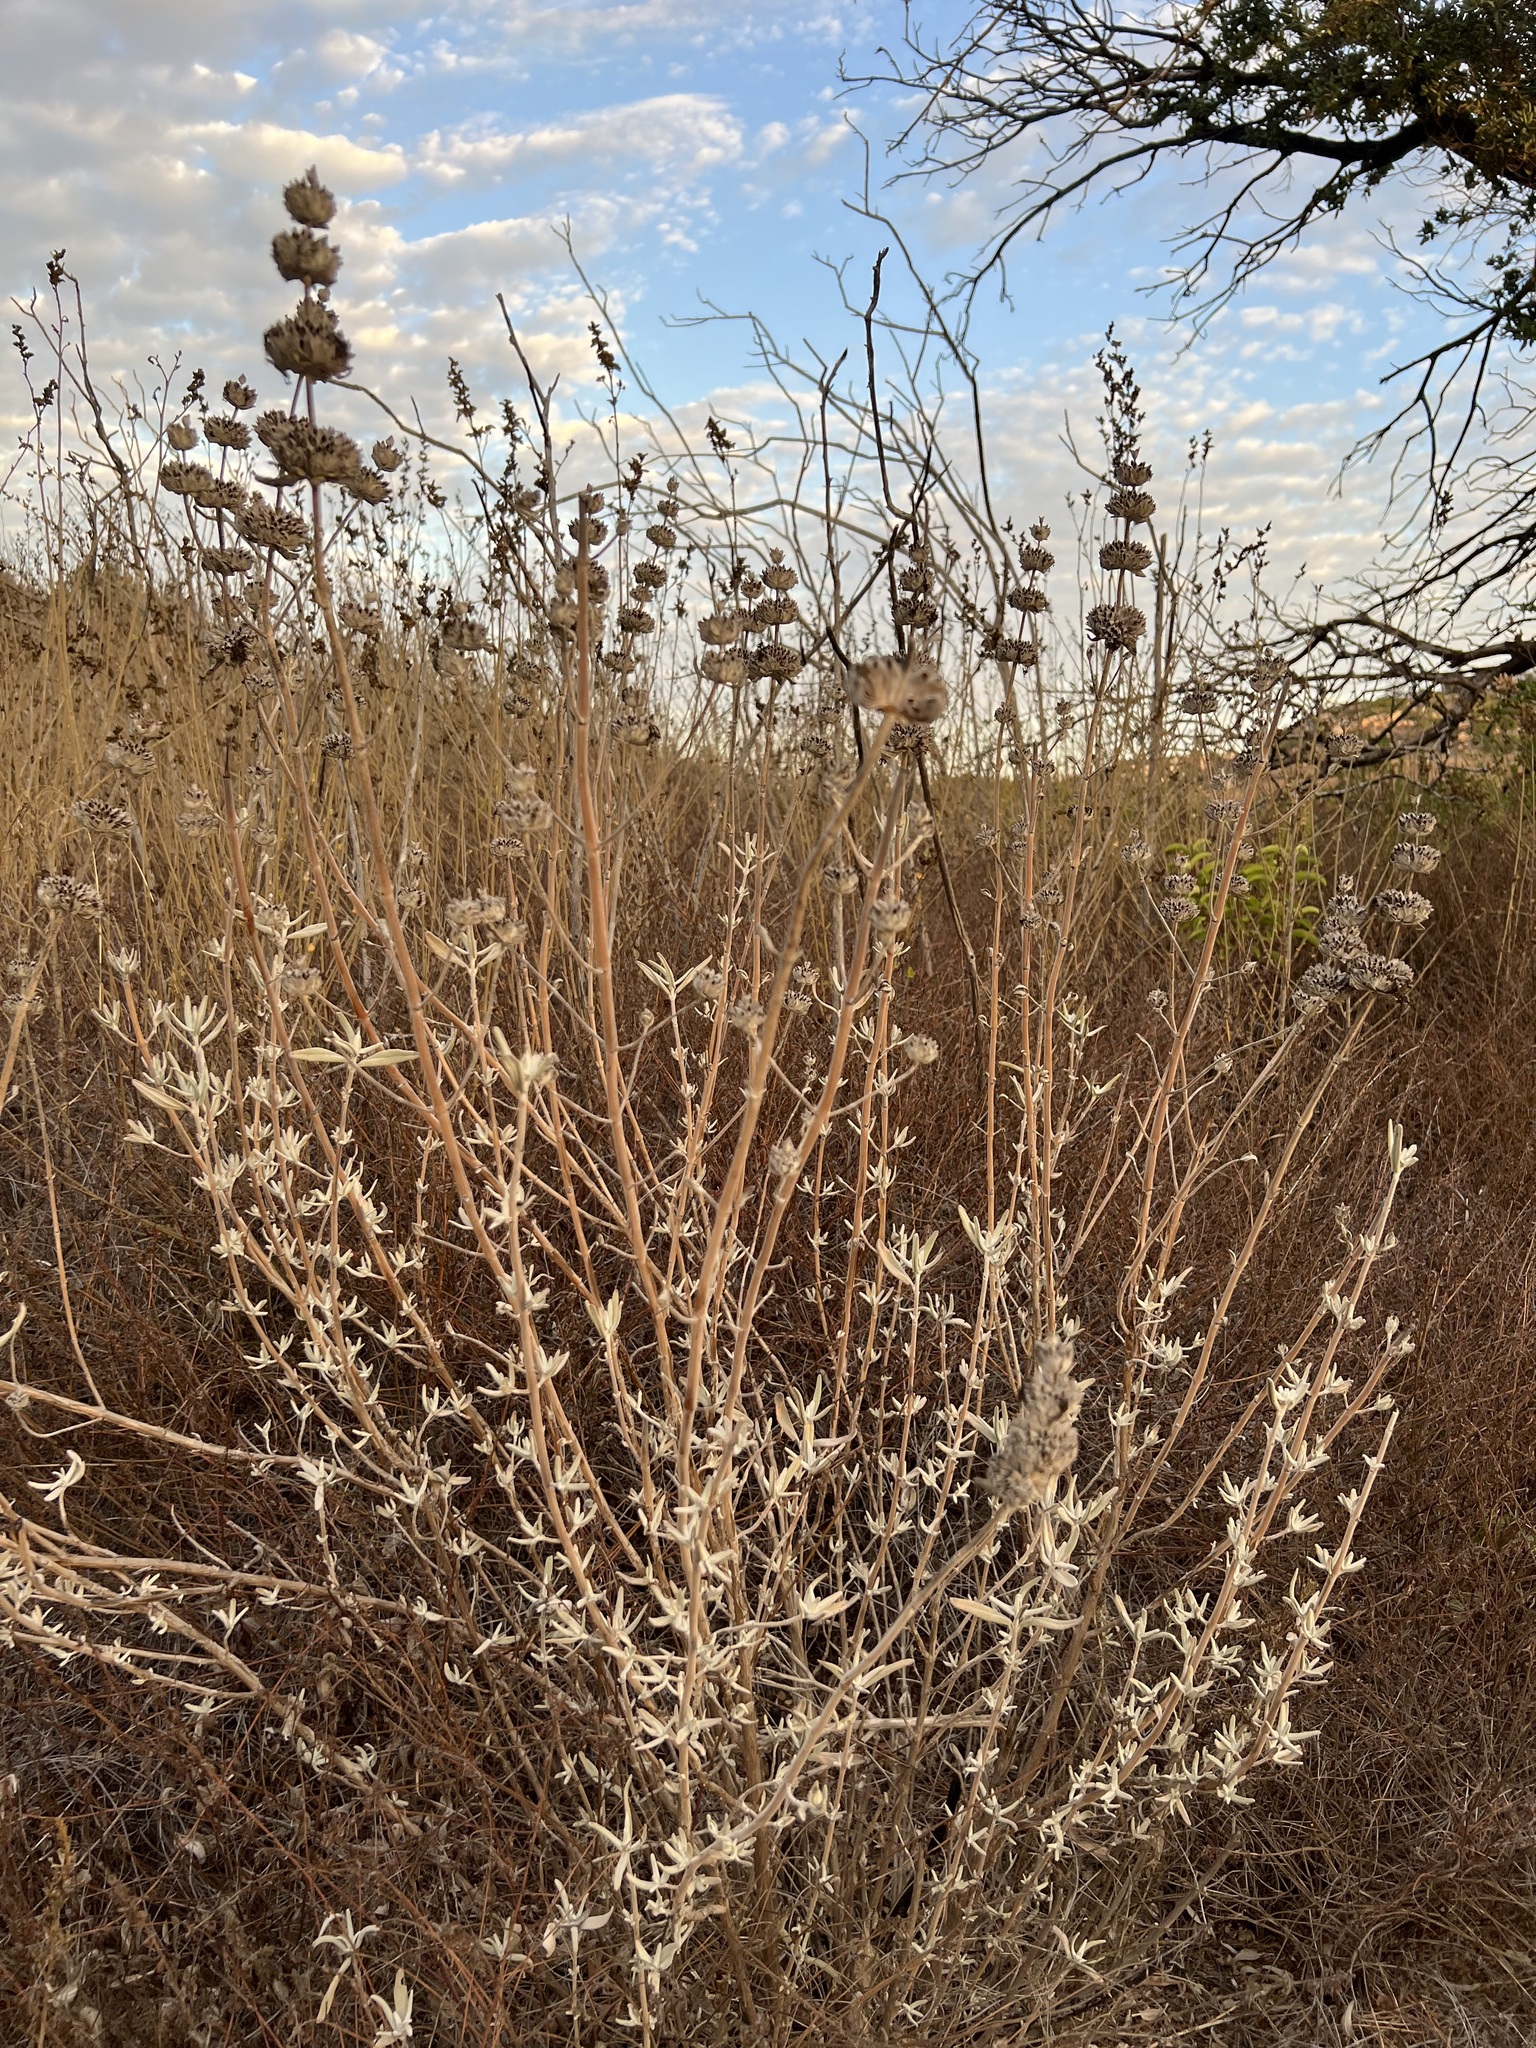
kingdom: Plantae
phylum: Tracheophyta
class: Magnoliopsida
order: Lamiales
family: Lamiaceae
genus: Salvia
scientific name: Salvia leucophylla
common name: Purple sage
